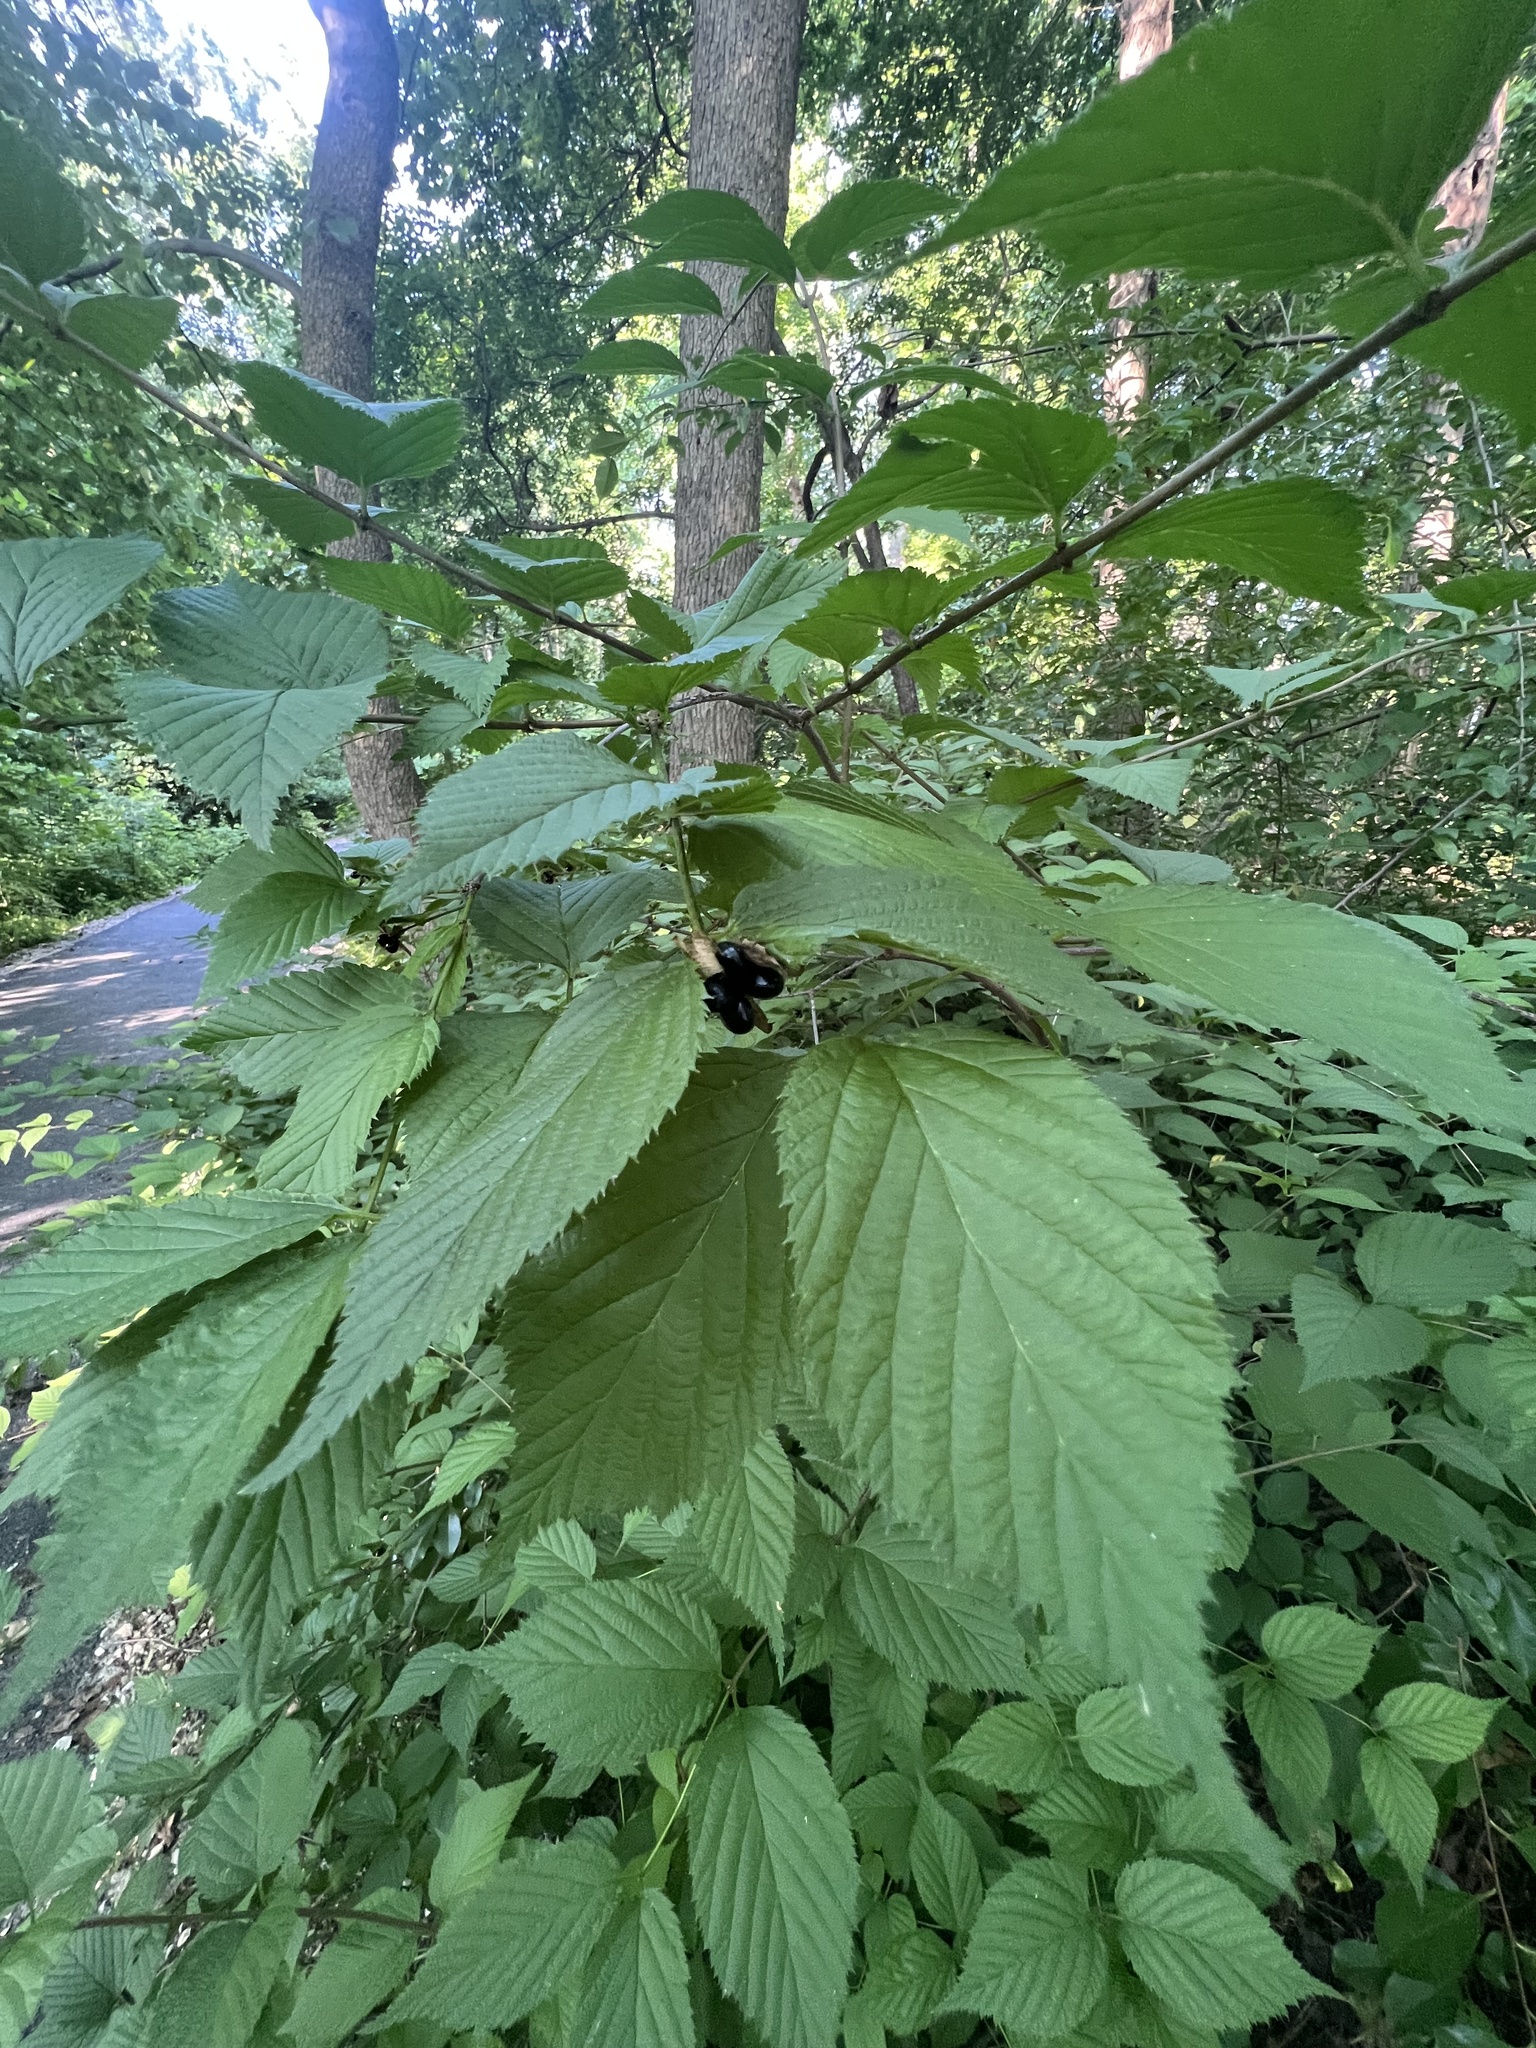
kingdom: Plantae
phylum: Tracheophyta
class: Magnoliopsida
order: Rosales
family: Rosaceae
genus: Rhodotypos
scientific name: Rhodotypos scandens
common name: Jetbead
